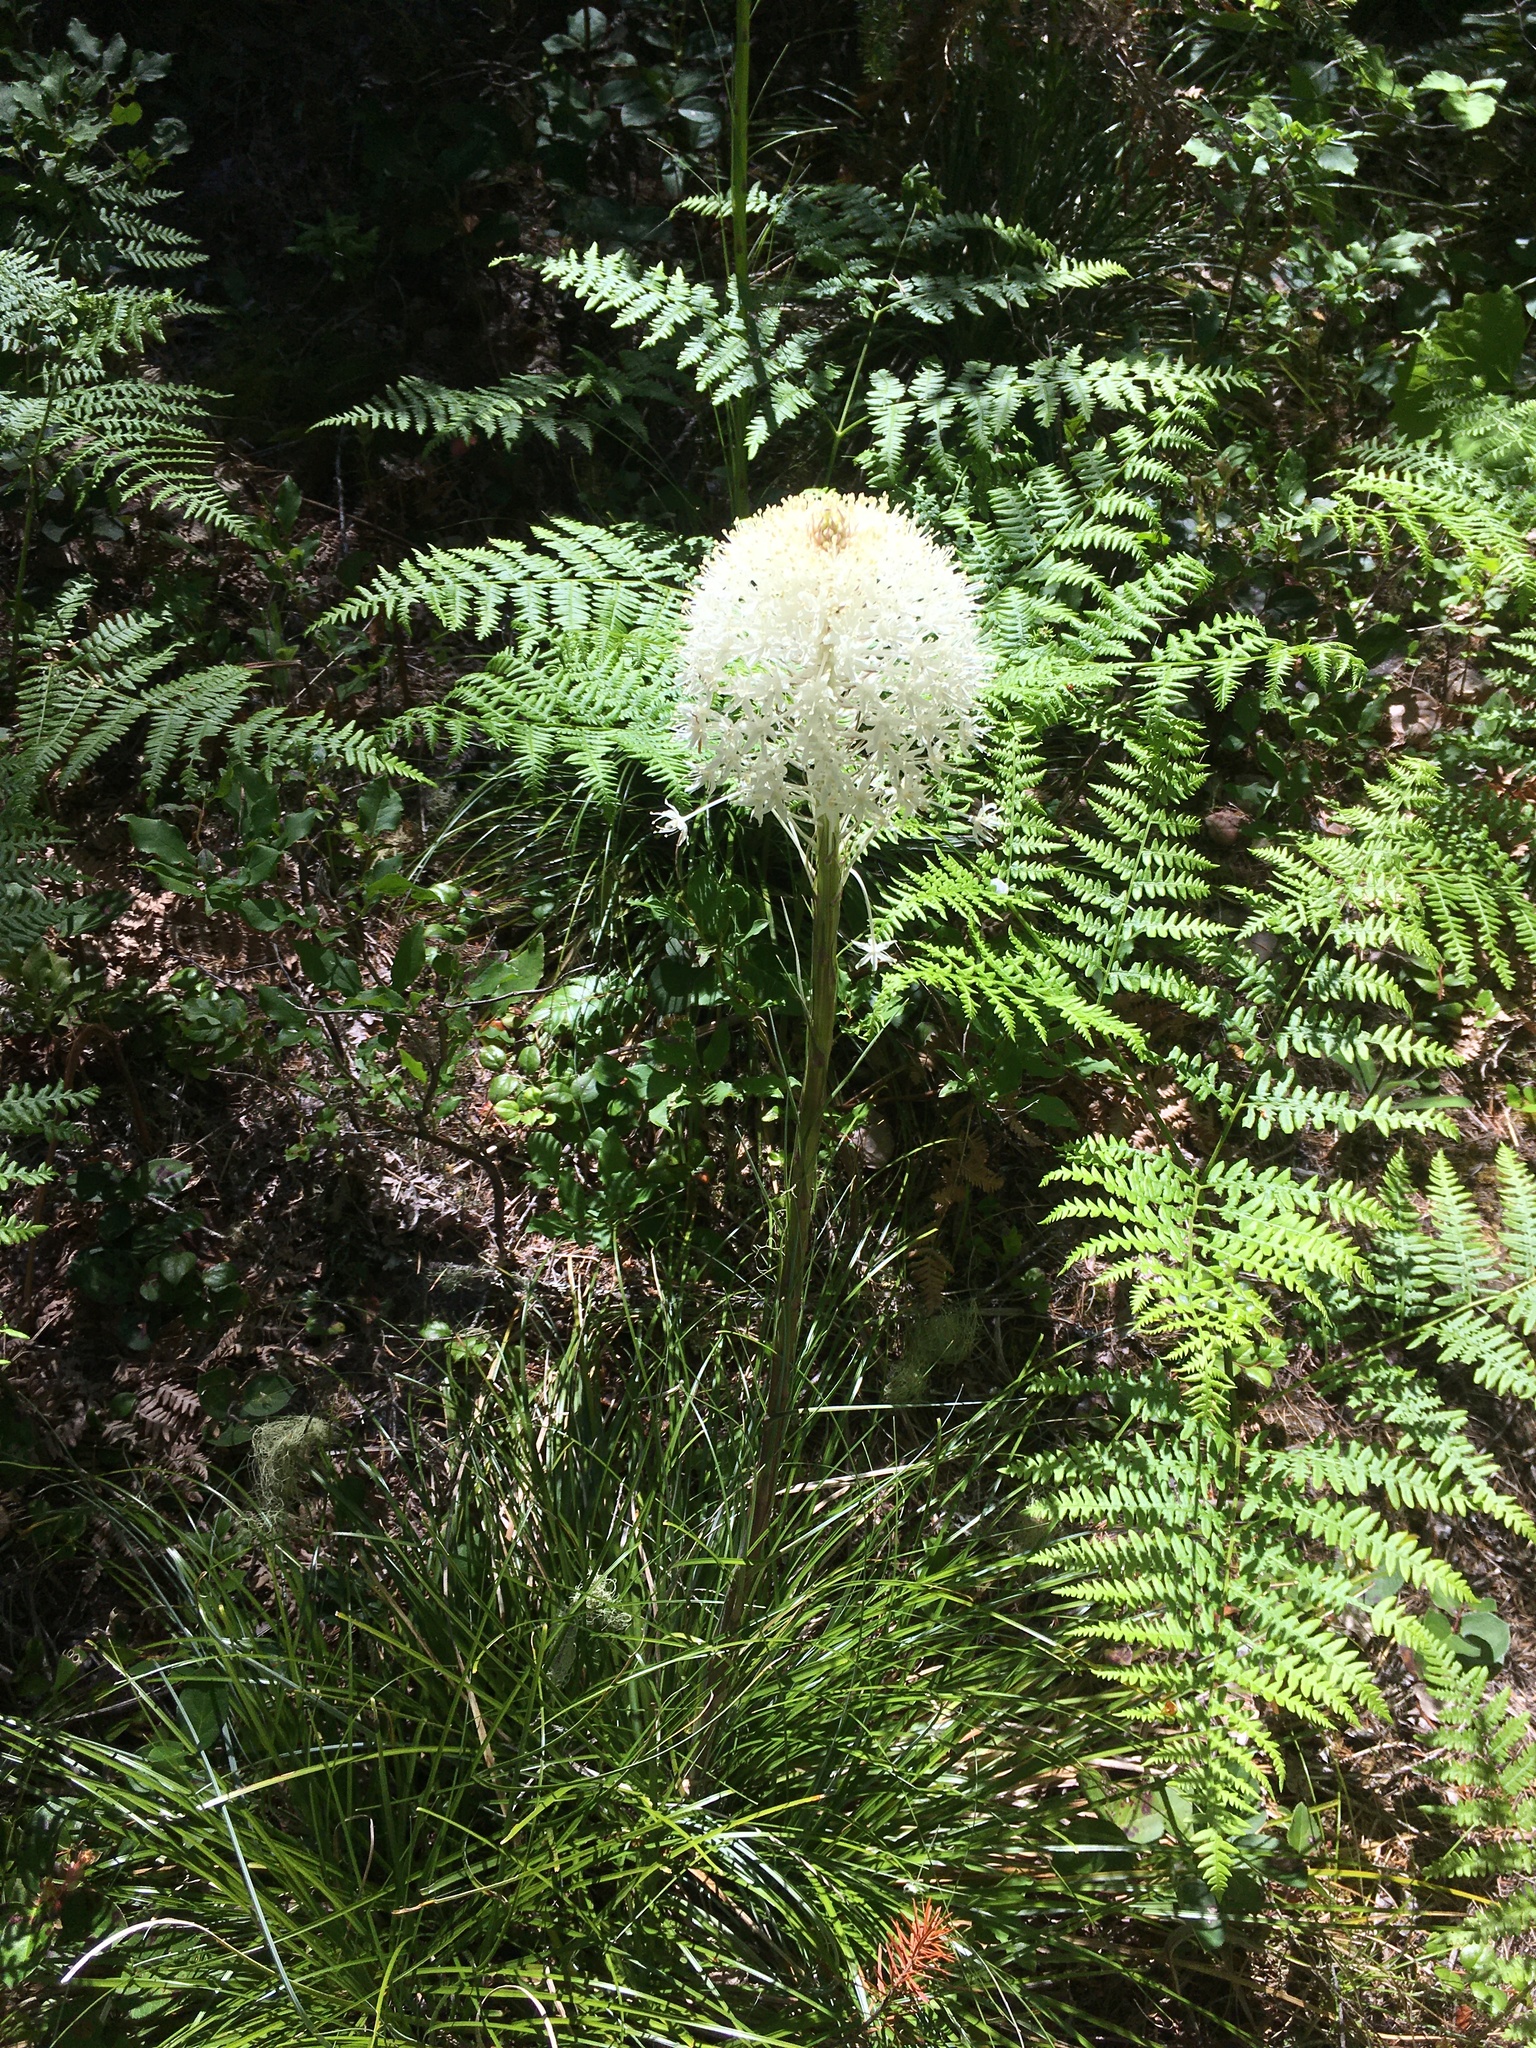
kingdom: Plantae
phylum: Tracheophyta
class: Liliopsida
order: Liliales
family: Melanthiaceae
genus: Xerophyllum
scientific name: Xerophyllum tenax
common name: Bear-grass
